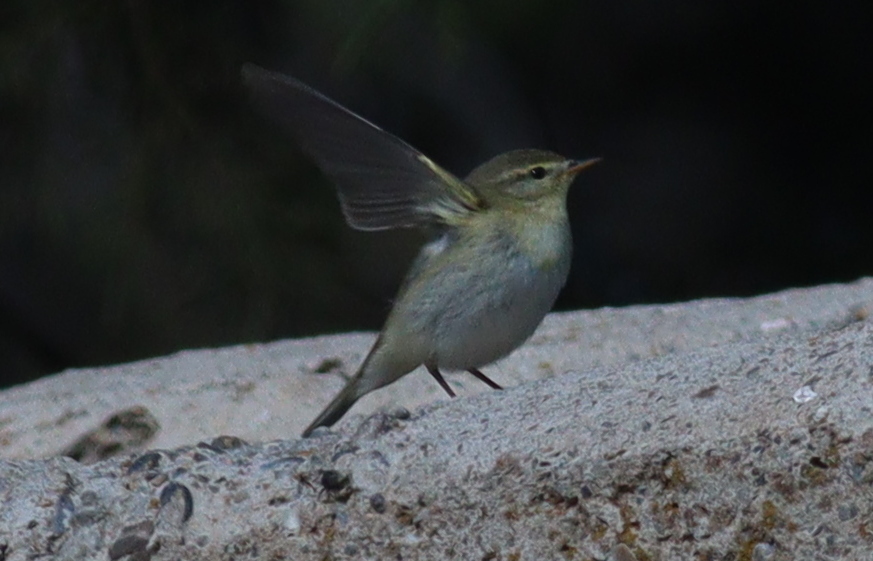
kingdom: Animalia
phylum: Chordata
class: Aves
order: Passeriformes
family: Phylloscopidae
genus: Phylloscopus
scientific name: Phylloscopus collybita
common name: Common chiffchaff
